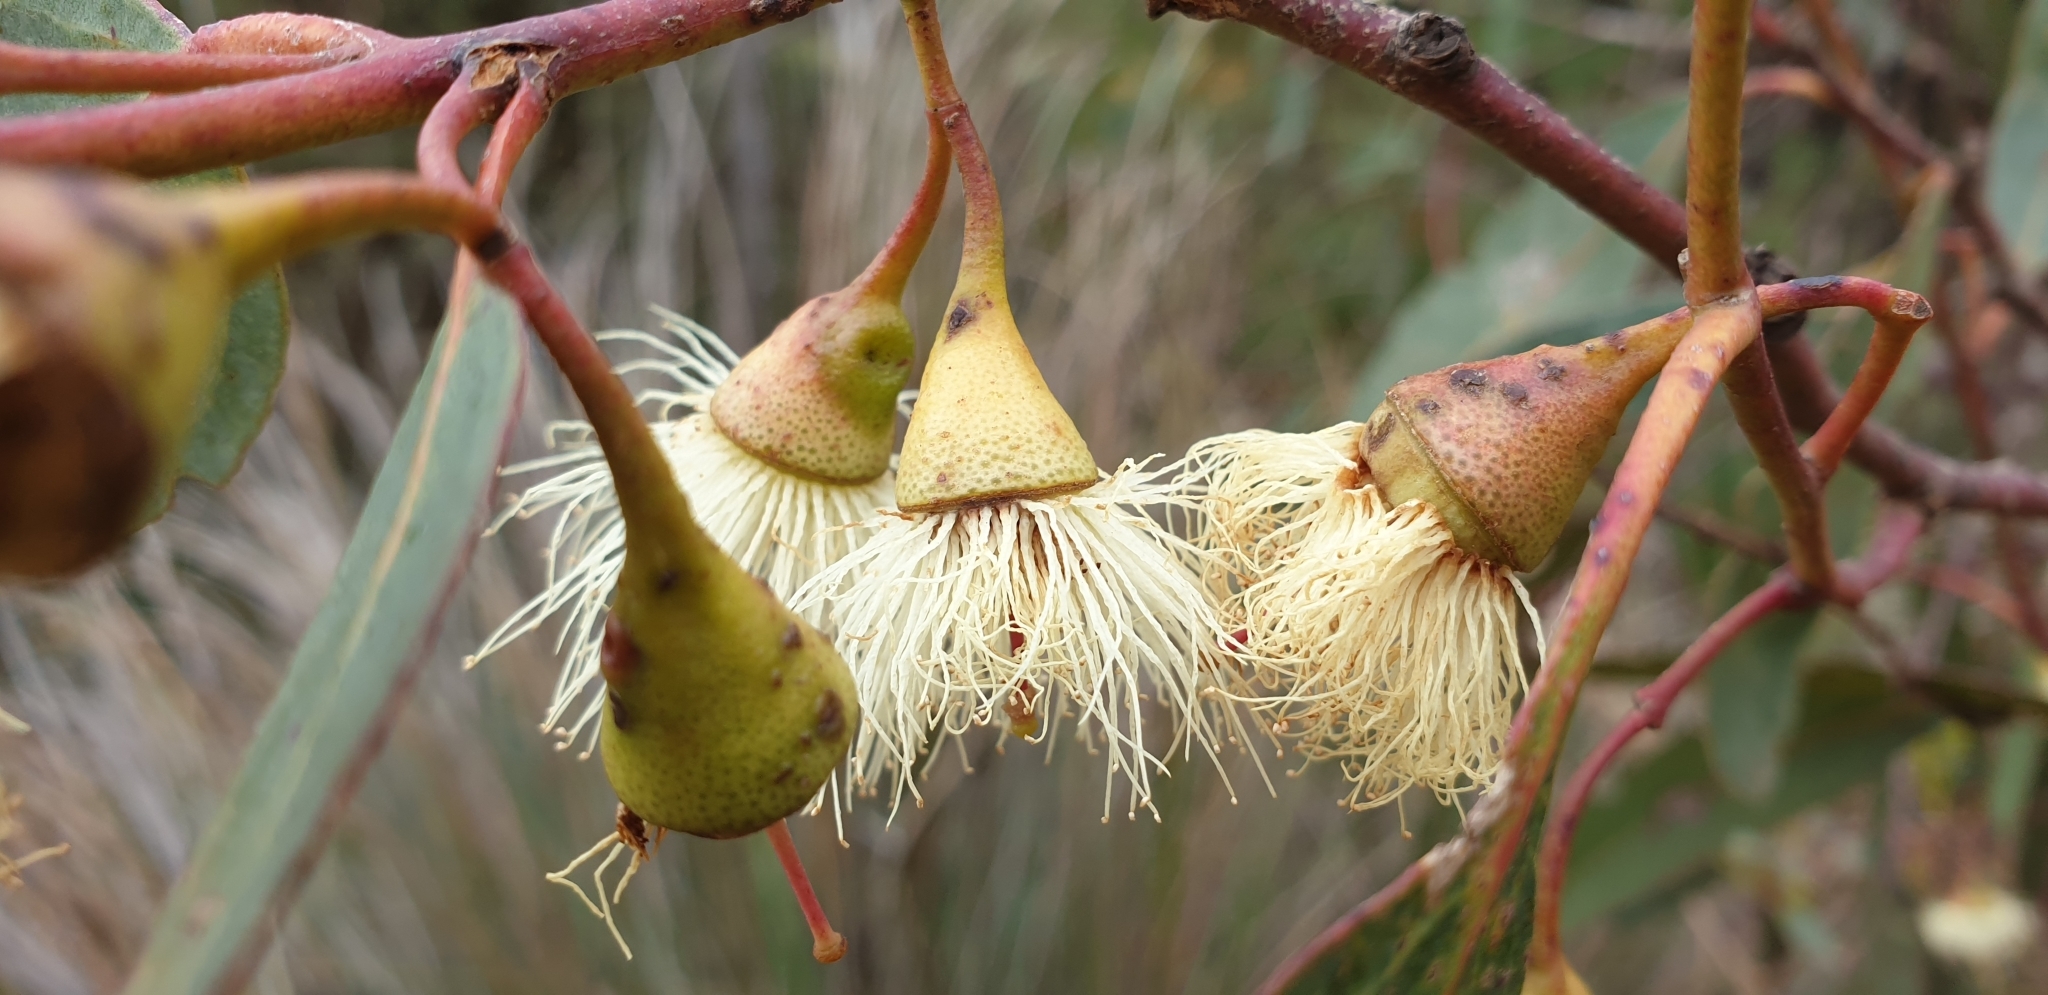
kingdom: Plantae
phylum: Tracheophyta
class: Magnoliopsida
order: Myrtales
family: Myrtaceae
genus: Eucalyptus
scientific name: Eucalyptus leucoxylon
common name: Blue gum
